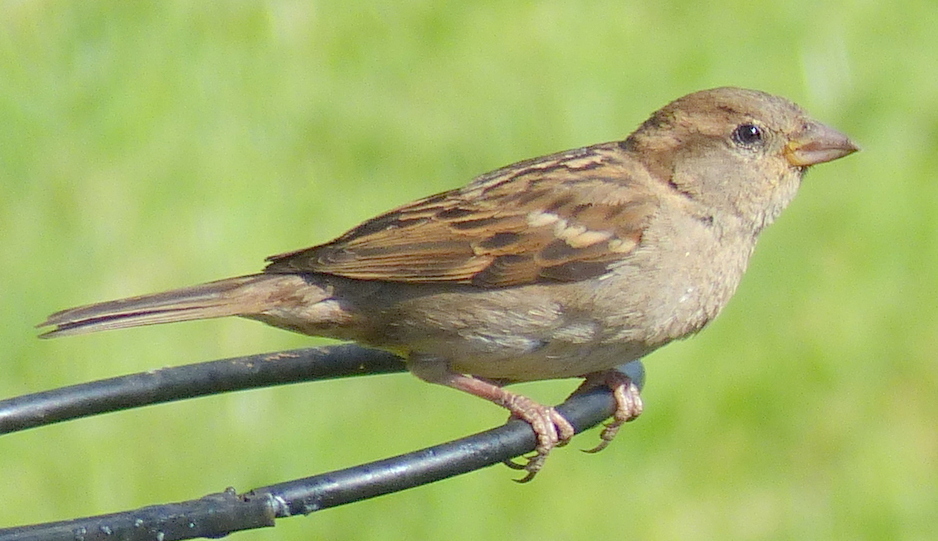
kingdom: Animalia
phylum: Chordata
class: Aves
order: Passeriformes
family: Passeridae
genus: Passer
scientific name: Passer domesticus
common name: House sparrow
